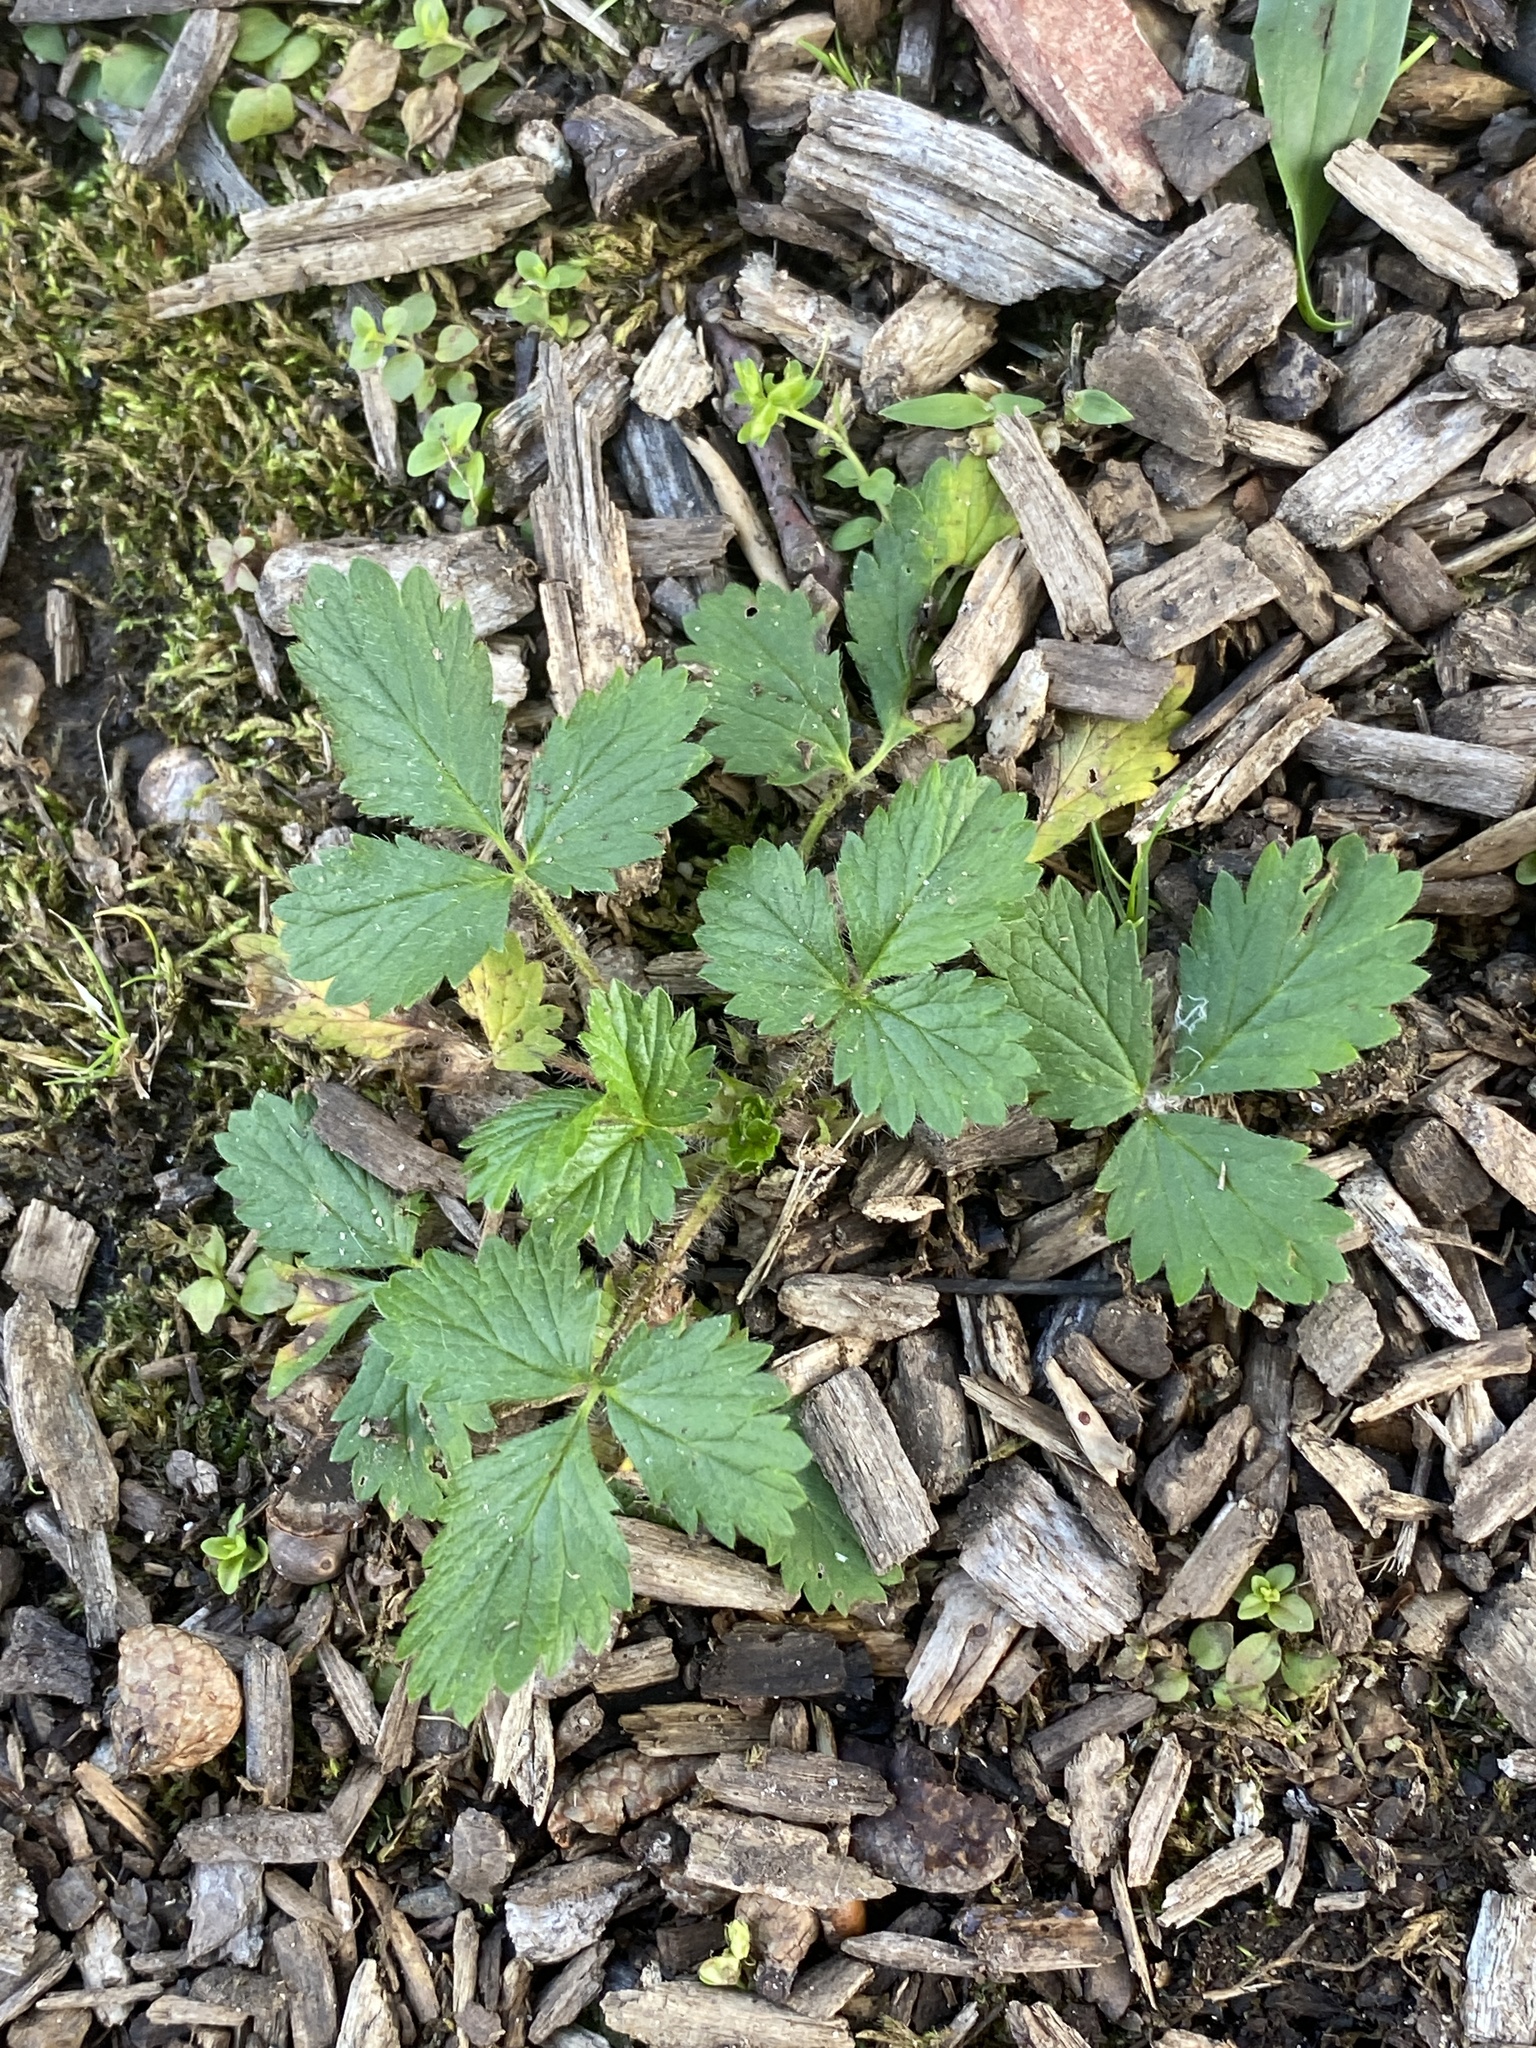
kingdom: Plantae
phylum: Tracheophyta
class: Magnoliopsida
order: Rosales
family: Rosaceae
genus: Potentilla
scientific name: Potentilla norvegica
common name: Ternate-leaved cinquefoil
